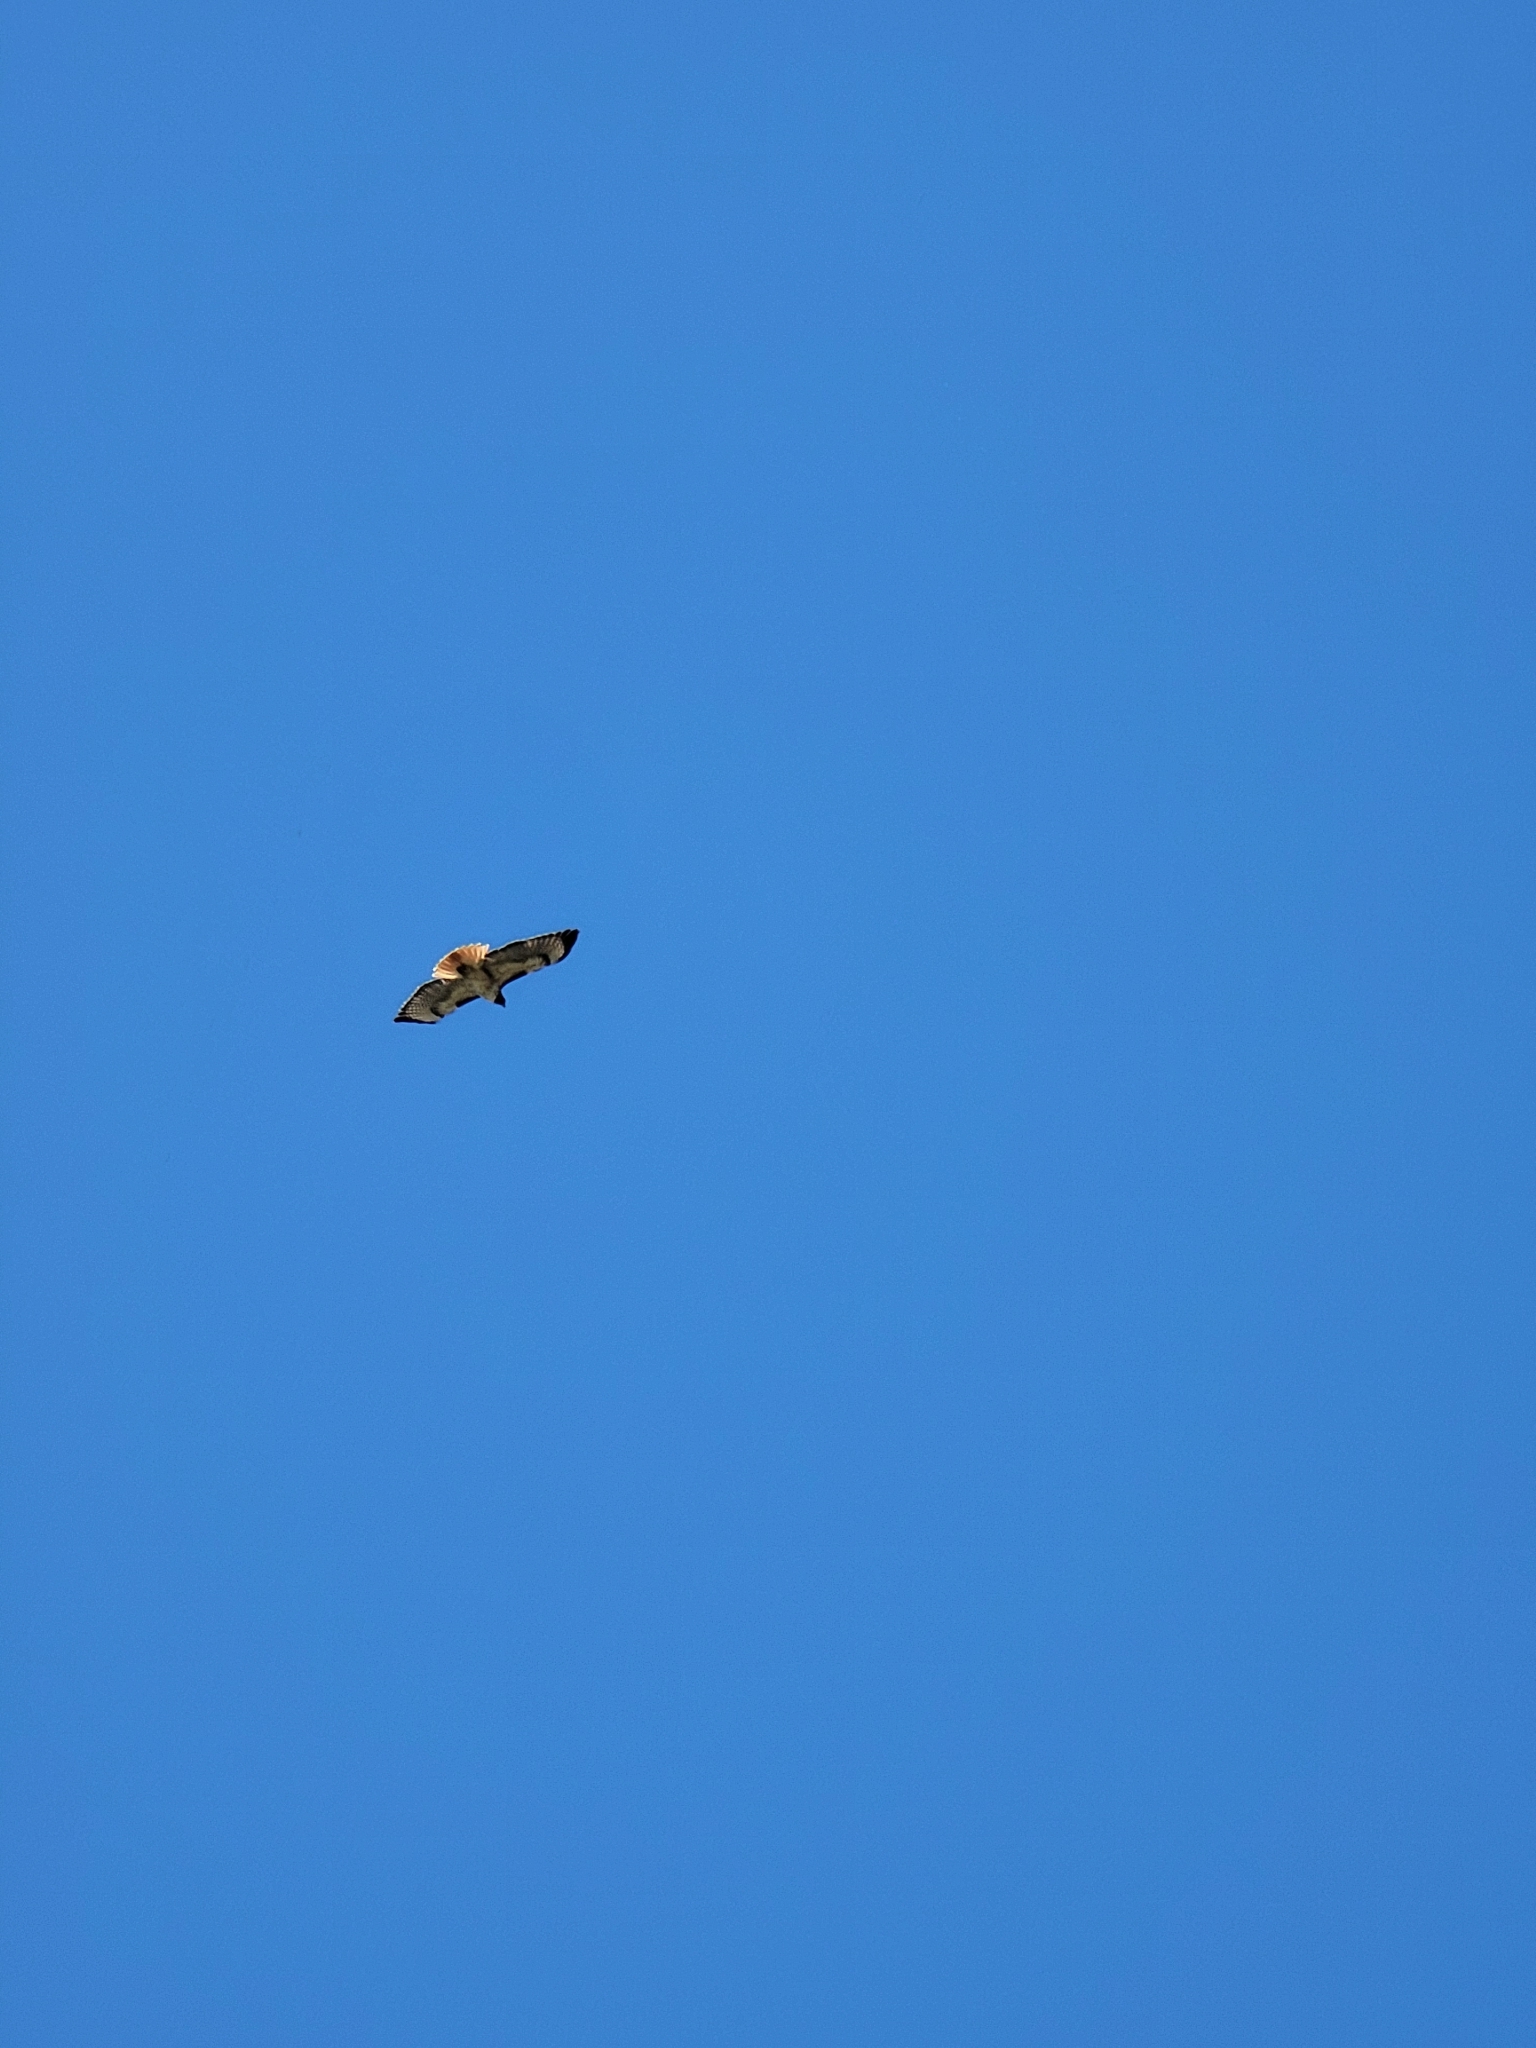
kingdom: Animalia
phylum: Chordata
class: Aves
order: Accipitriformes
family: Accipitridae
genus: Buteo
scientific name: Buteo jamaicensis
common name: Red-tailed hawk
